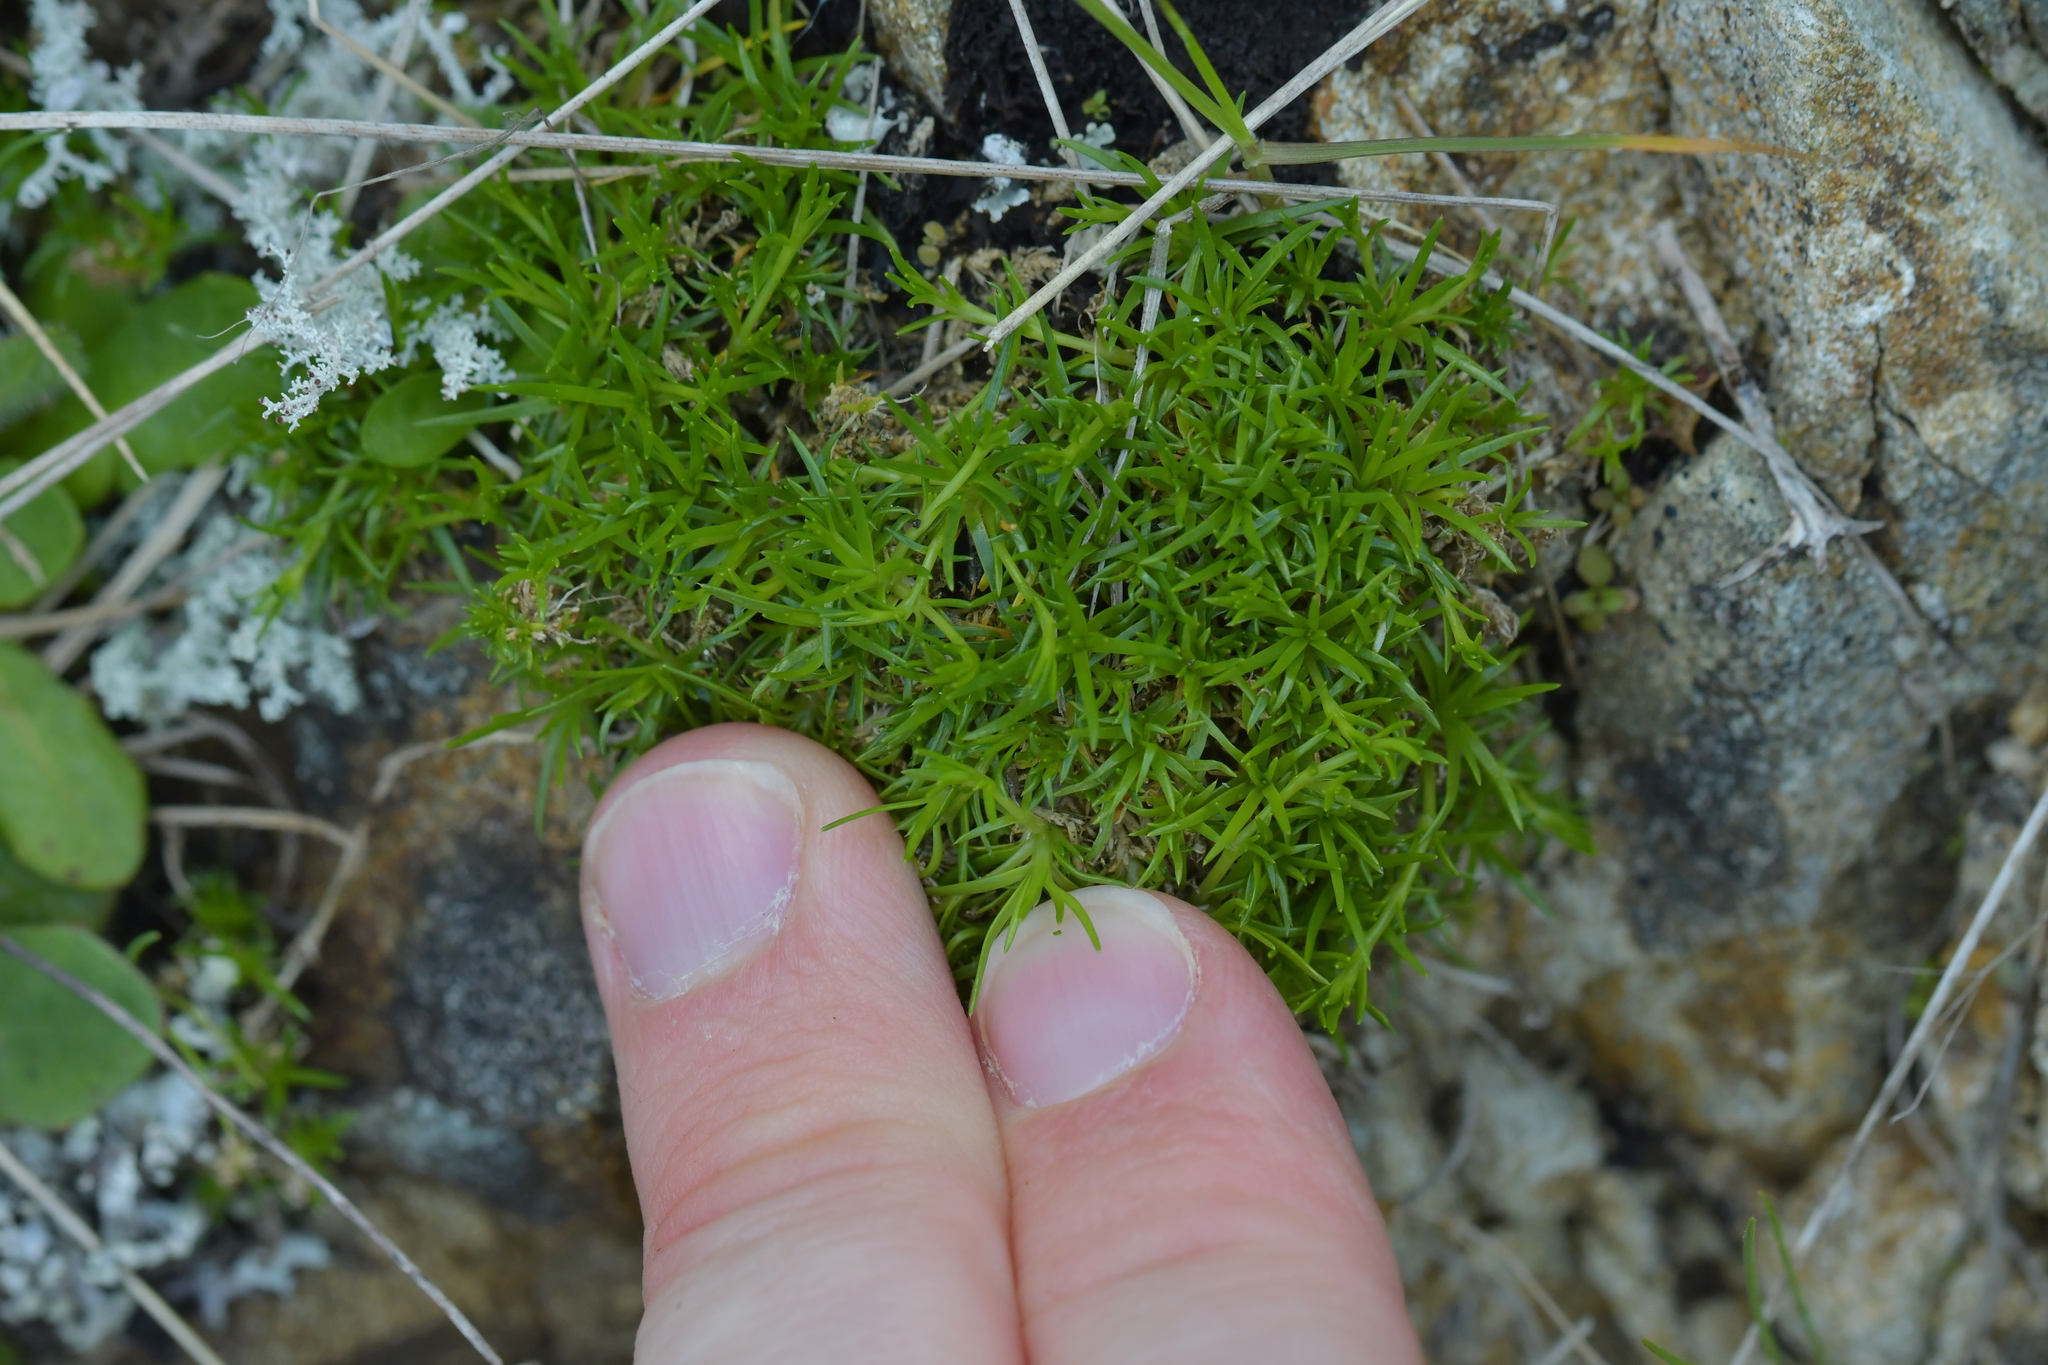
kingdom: Plantae
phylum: Tracheophyta
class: Magnoliopsida
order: Caryophyllales
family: Caryophyllaceae
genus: Sagina
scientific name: Sagina procumbens
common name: Procumbent pearlwort
